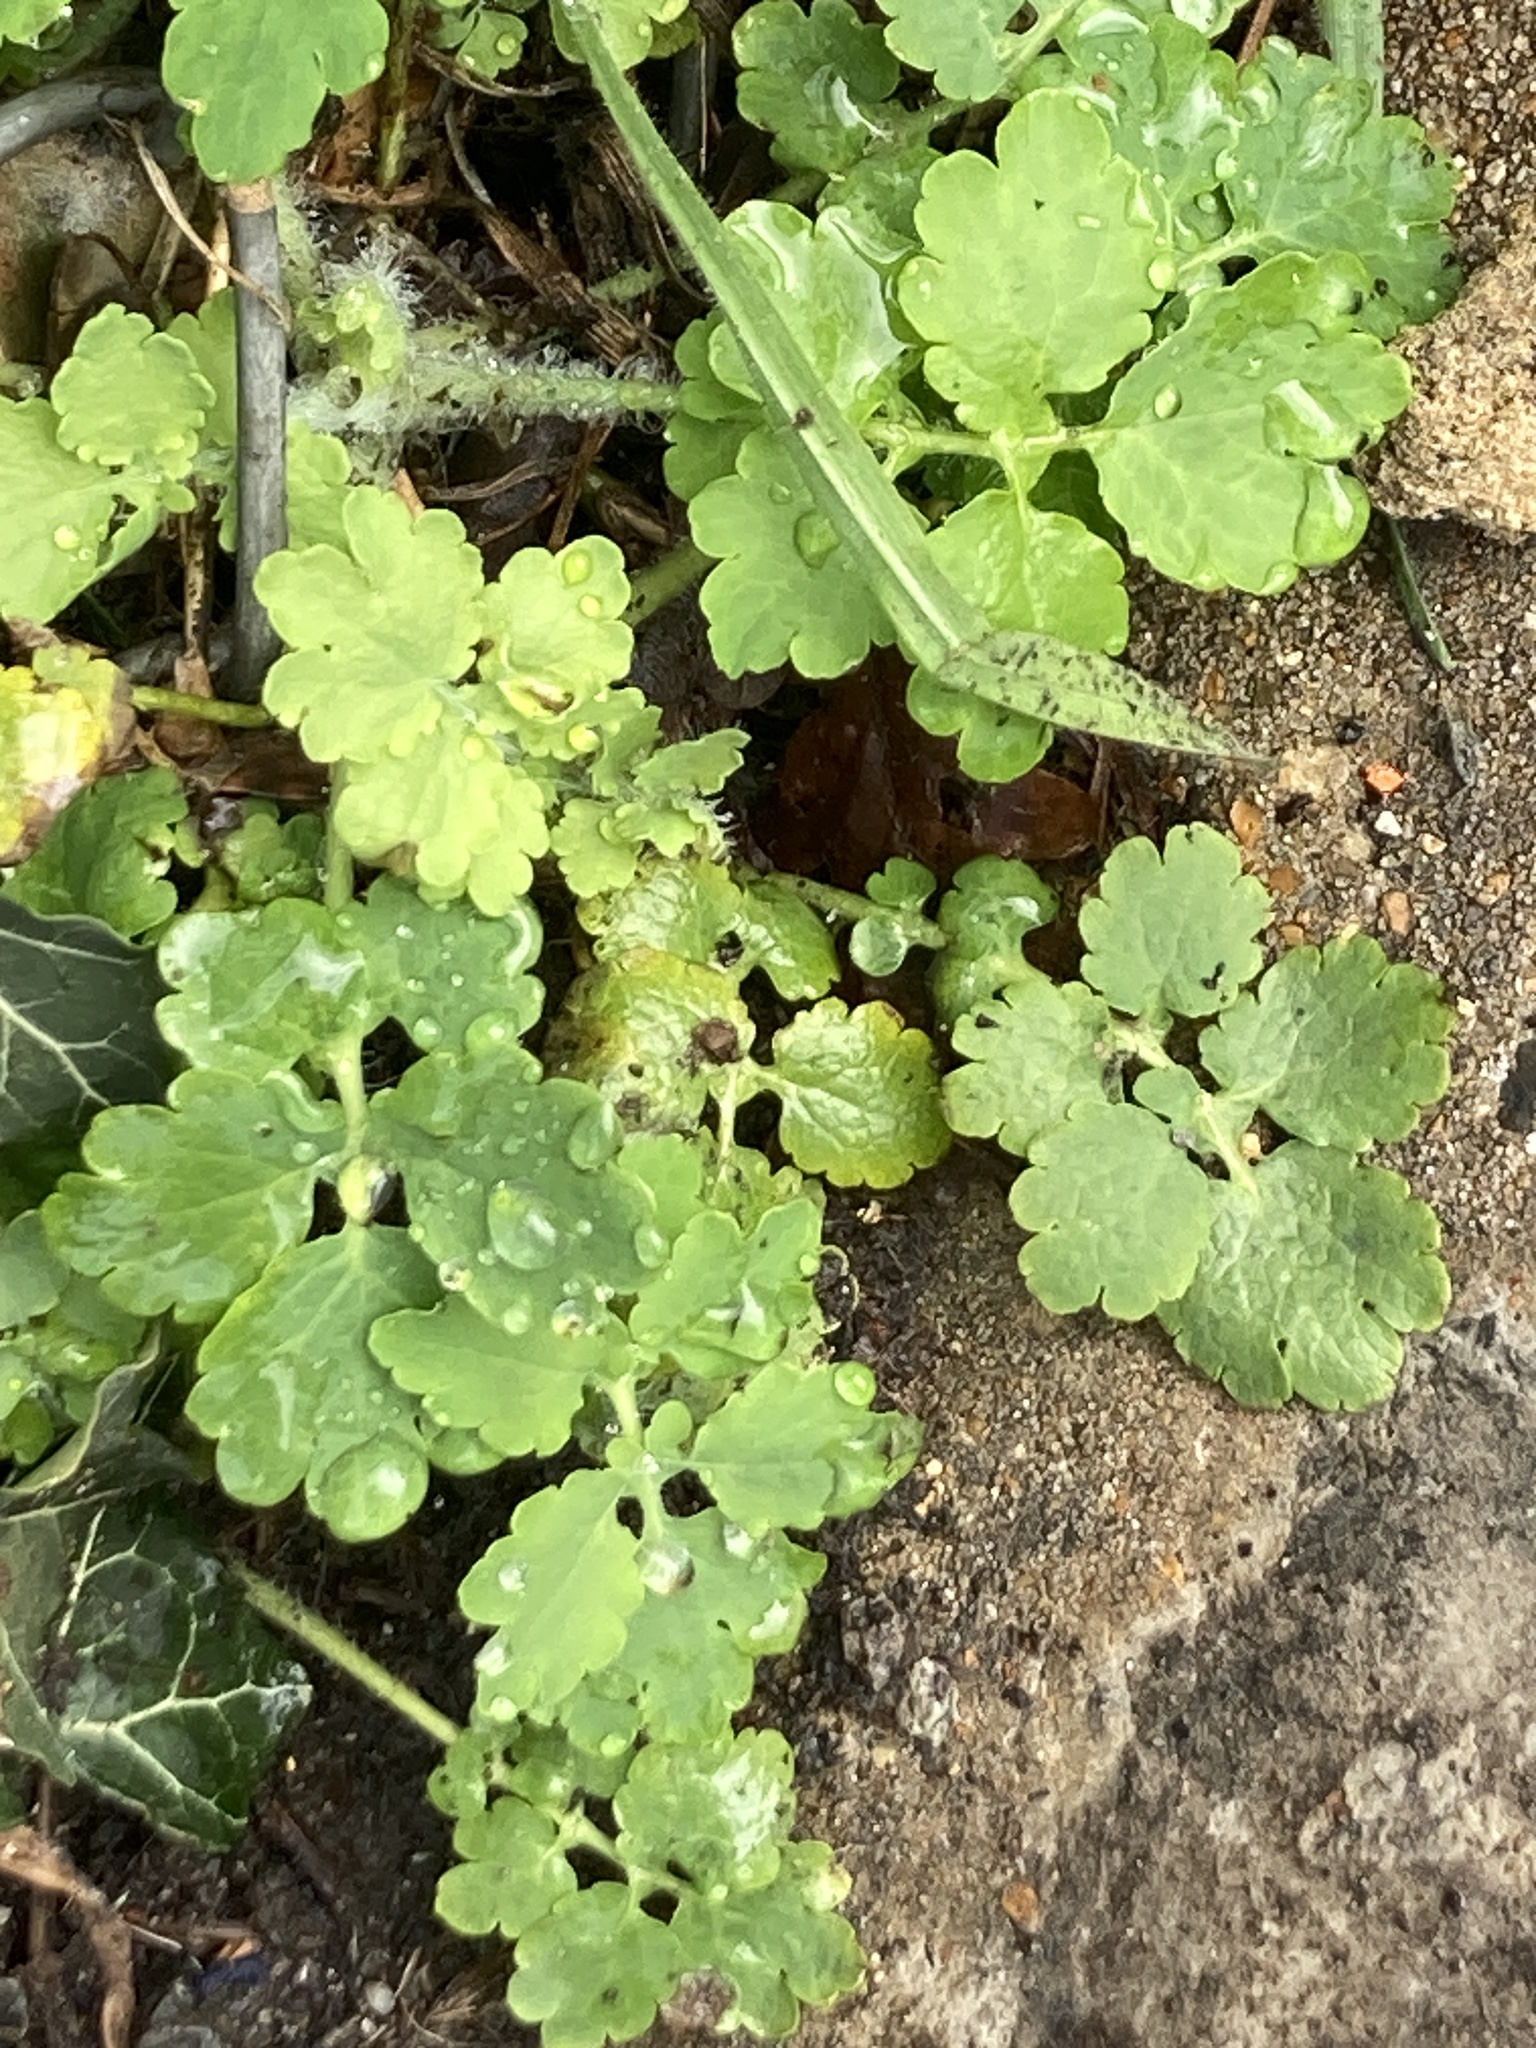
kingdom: Plantae
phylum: Tracheophyta
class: Magnoliopsida
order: Ranunculales
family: Papaveraceae
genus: Chelidonium
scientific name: Chelidonium majus
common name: Greater celandine
